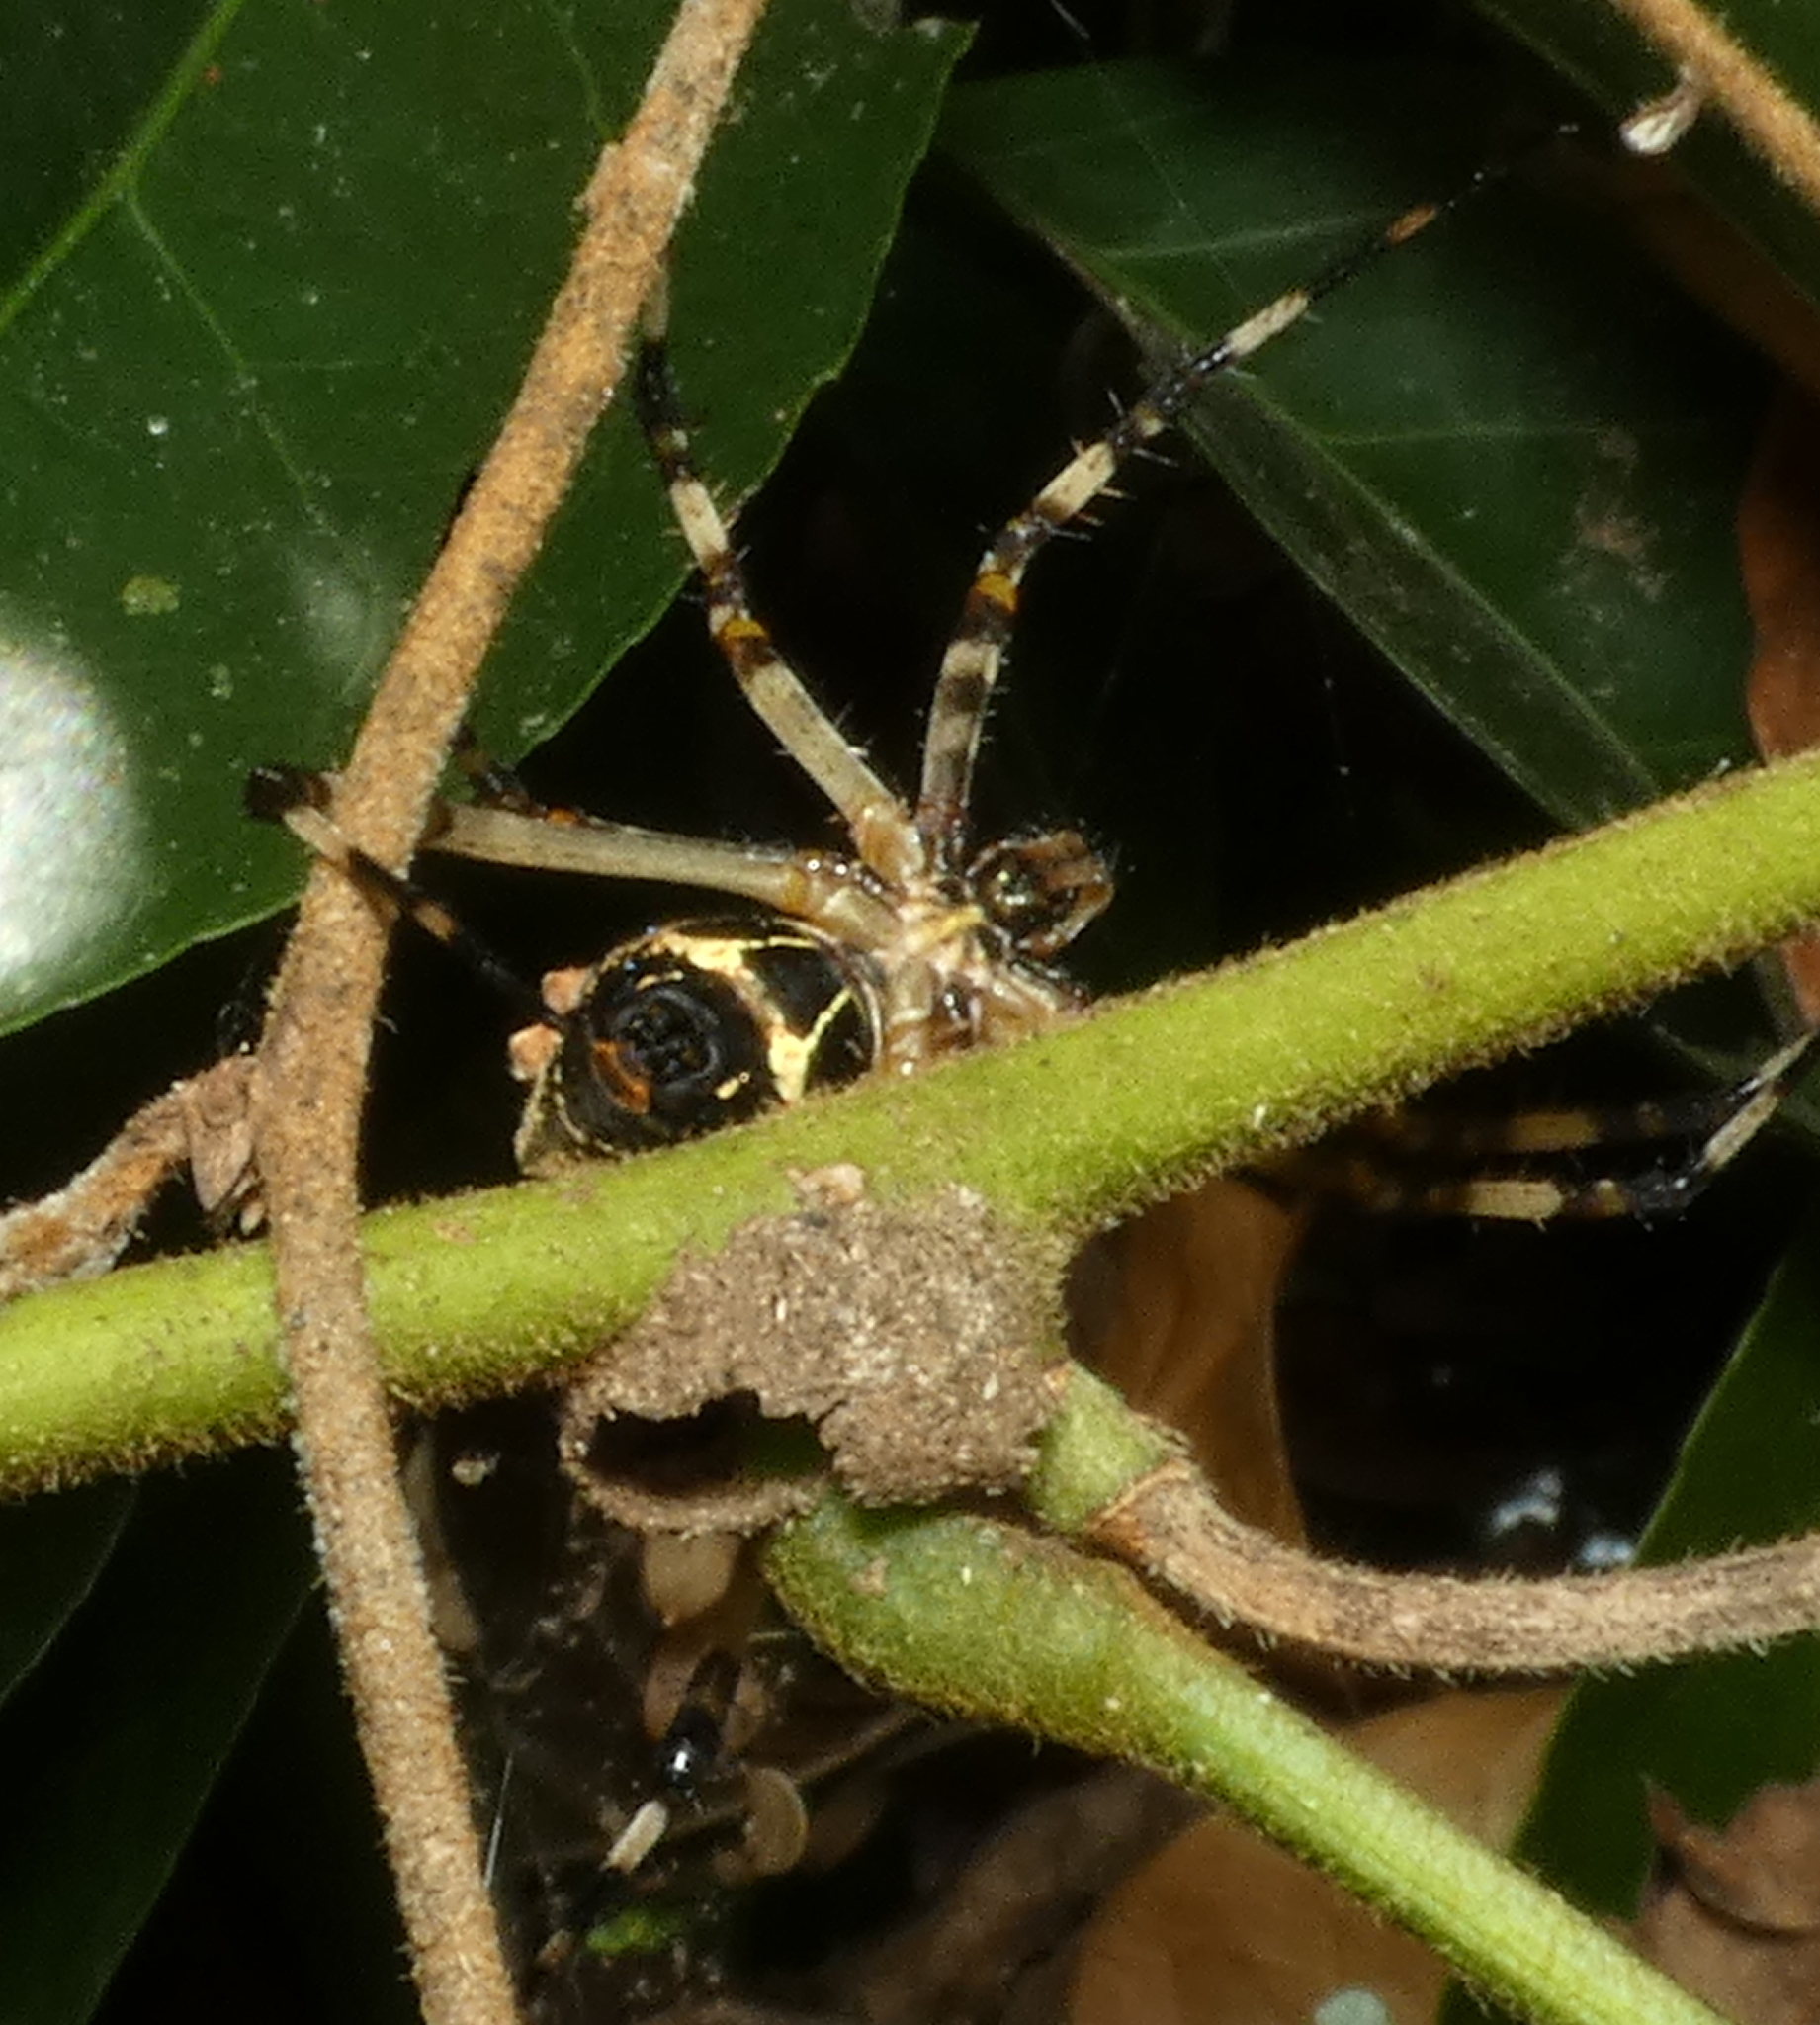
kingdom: Animalia
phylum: Arthropoda
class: Arachnida
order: Araneae
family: Araneidae
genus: Argiope
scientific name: Argiope argentata
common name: Orb weavers
